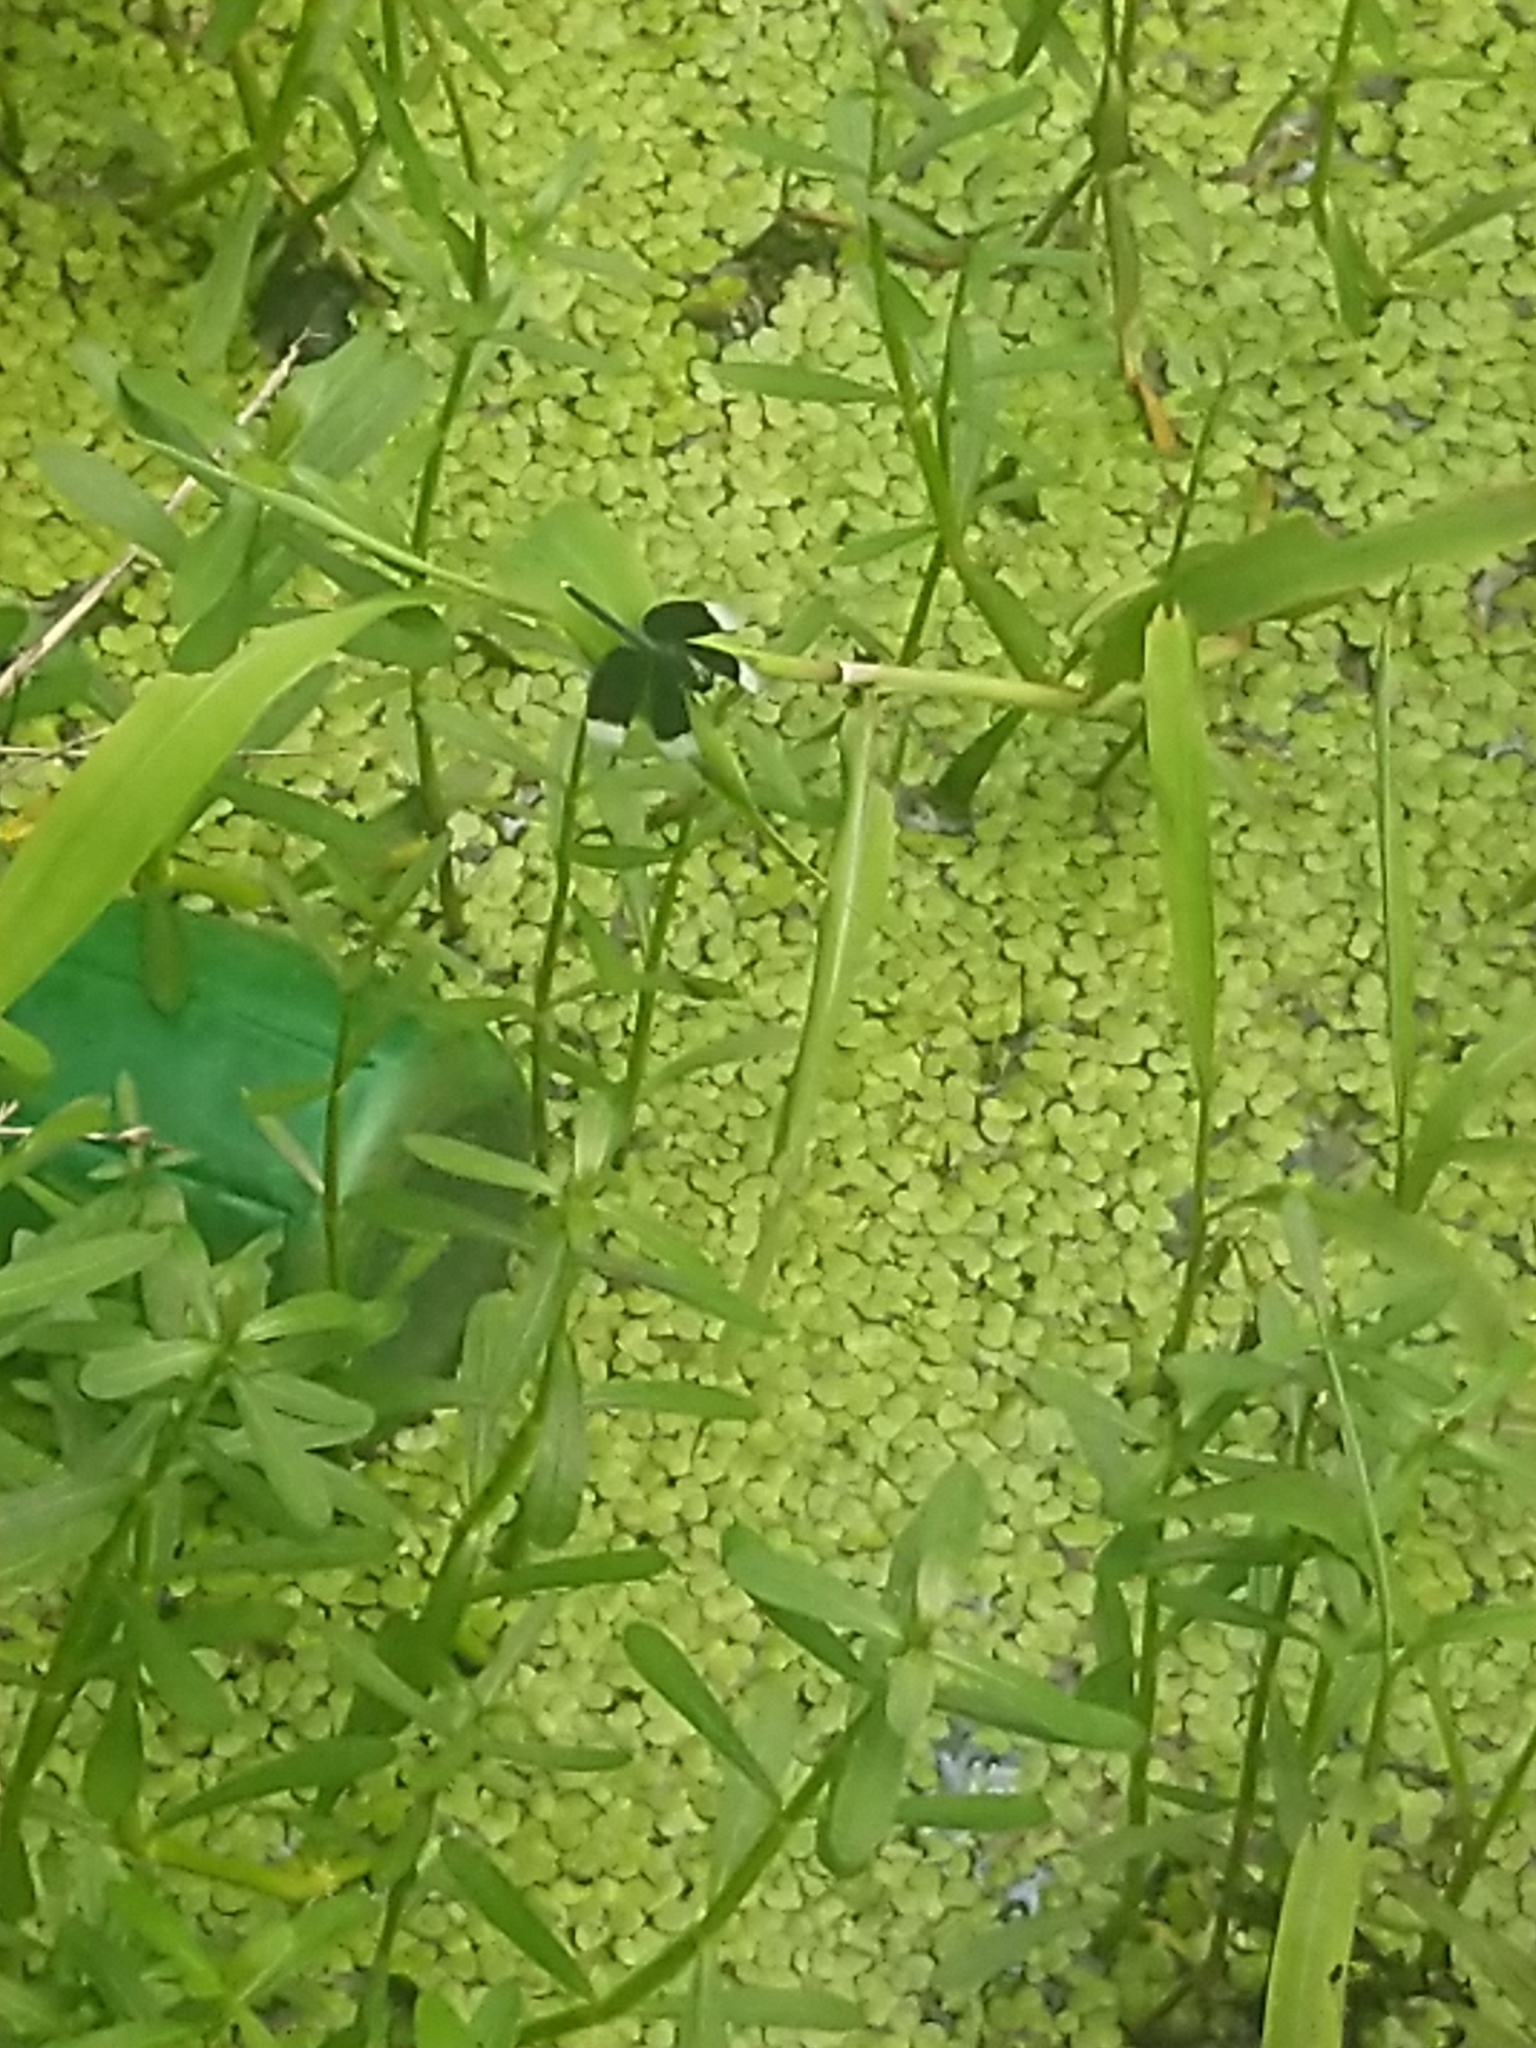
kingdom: Animalia
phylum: Arthropoda
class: Insecta
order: Odonata
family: Libellulidae
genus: Neurothemis
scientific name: Neurothemis tullia
